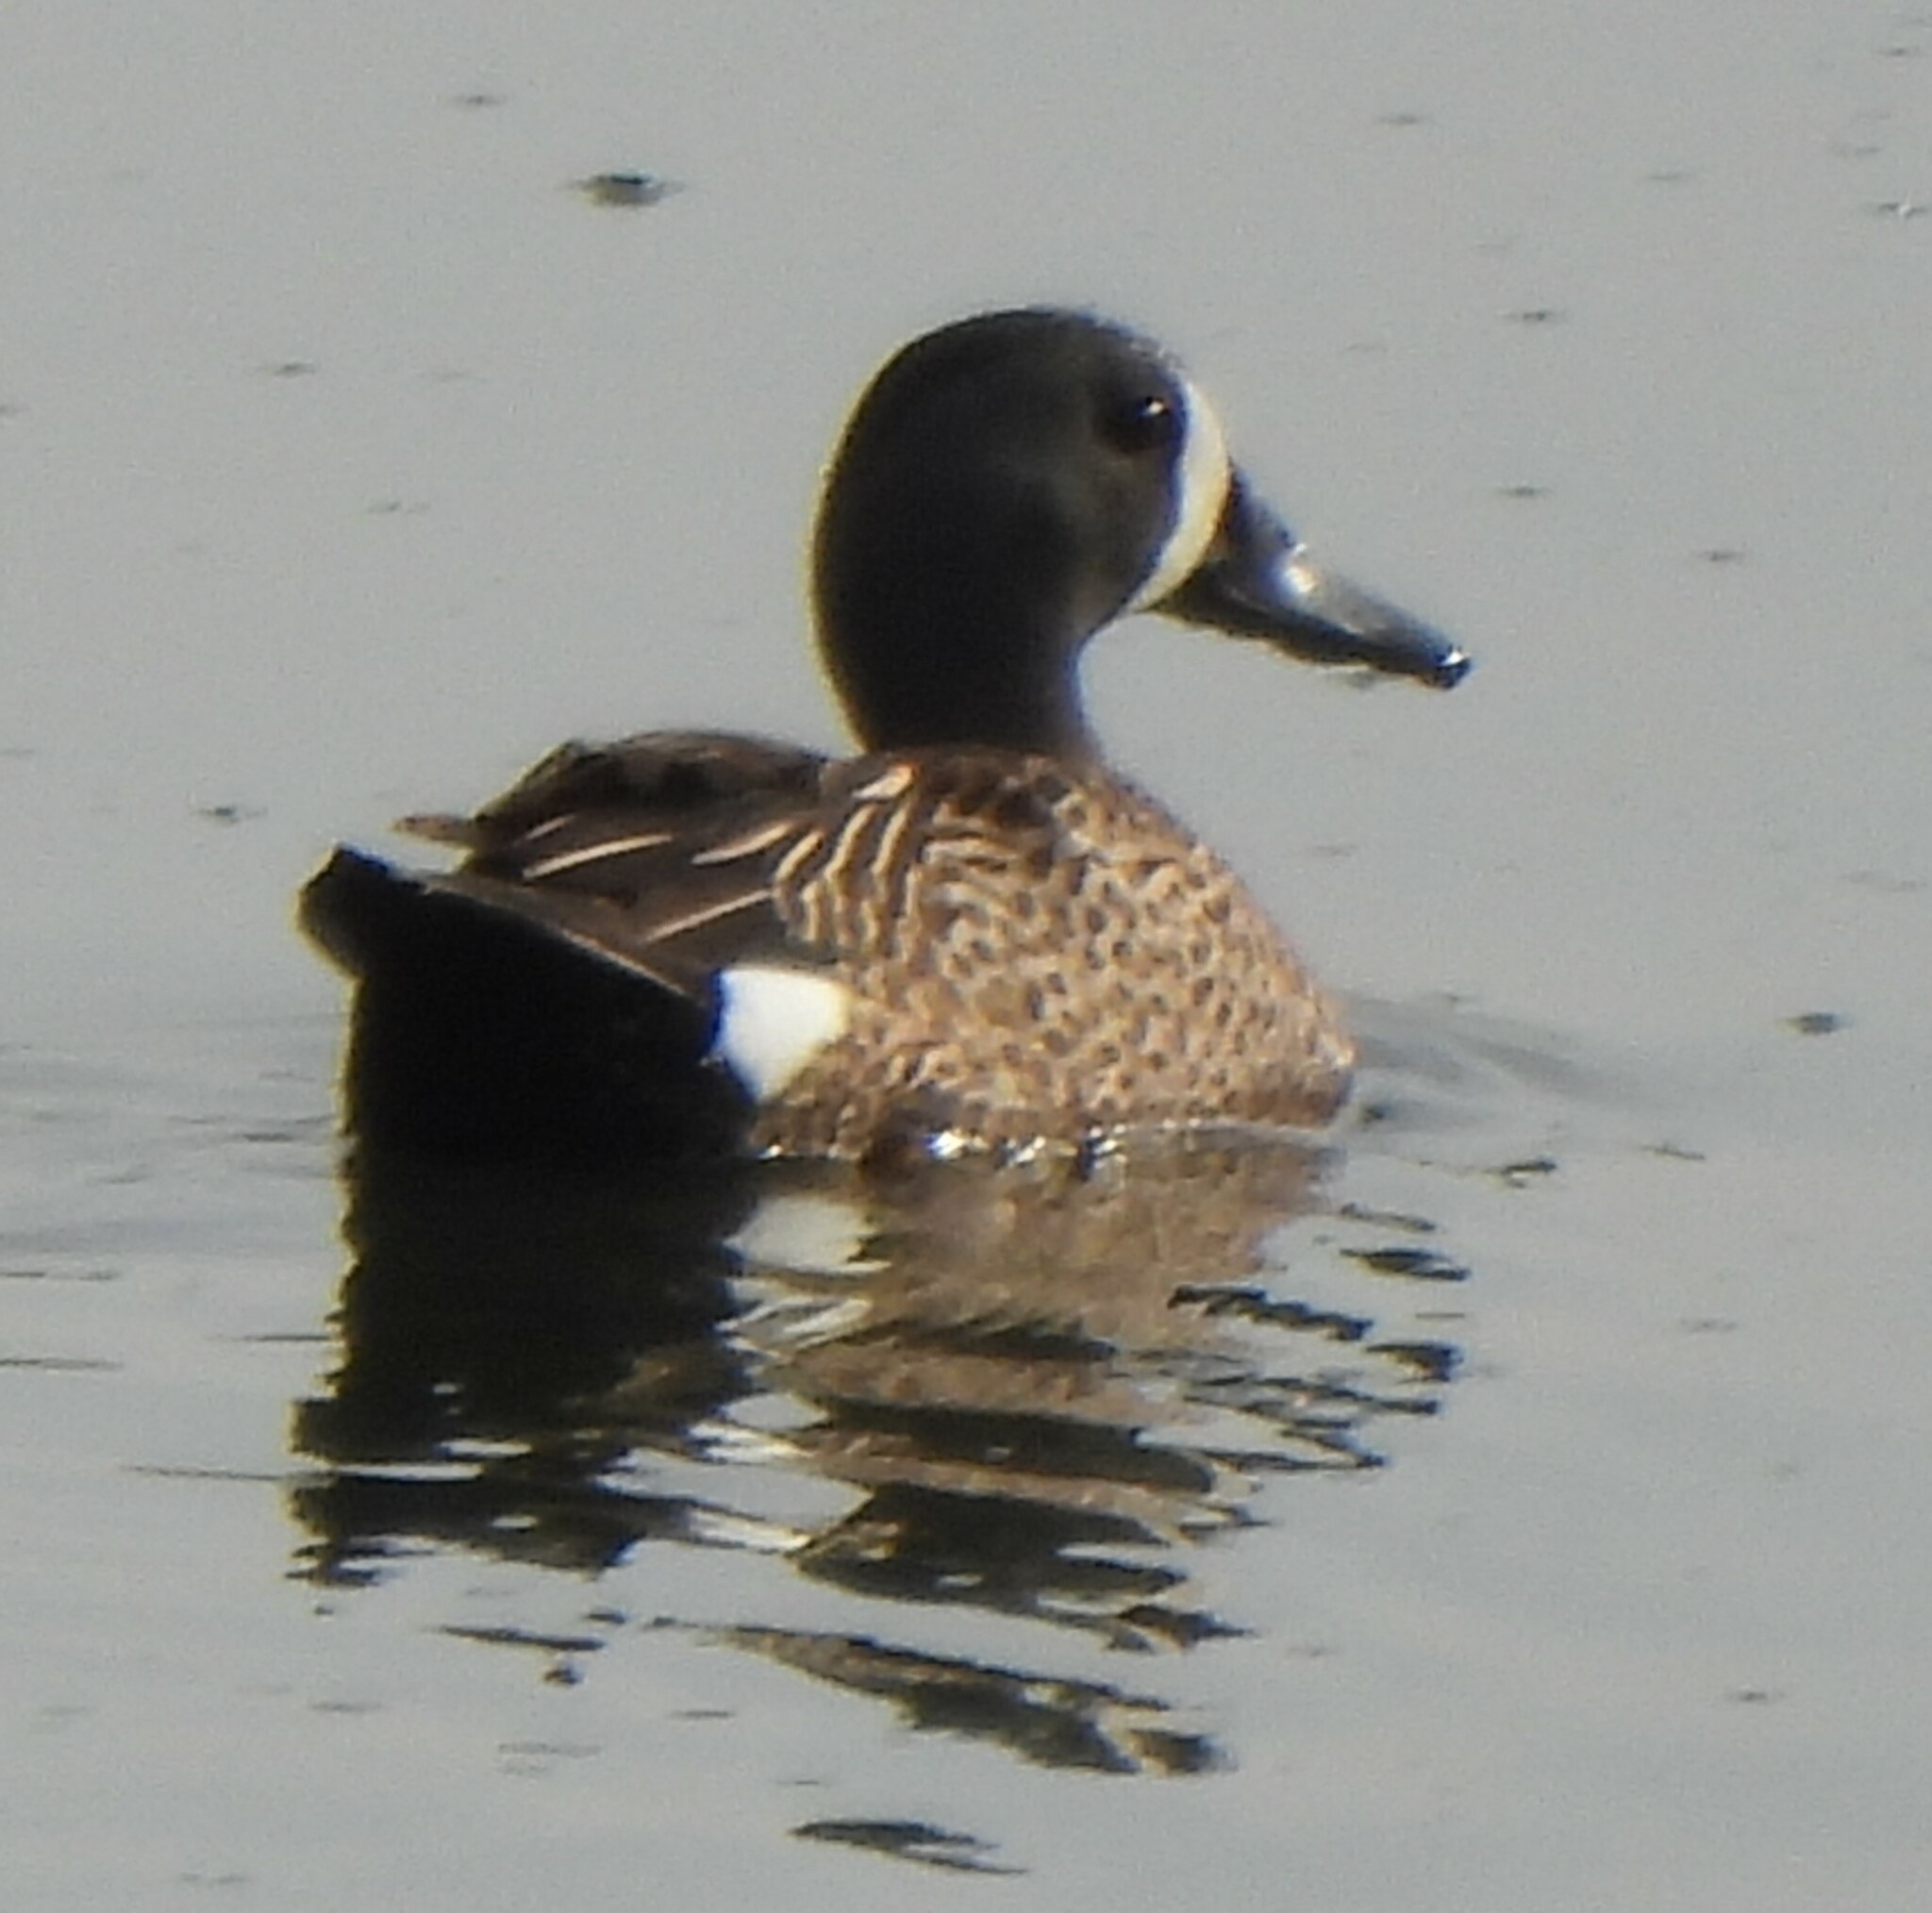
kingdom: Animalia
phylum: Chordata
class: Aves
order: Anseriformes
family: Anatidae
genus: Spatula
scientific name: Spatula discors
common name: Blue-winged teal
